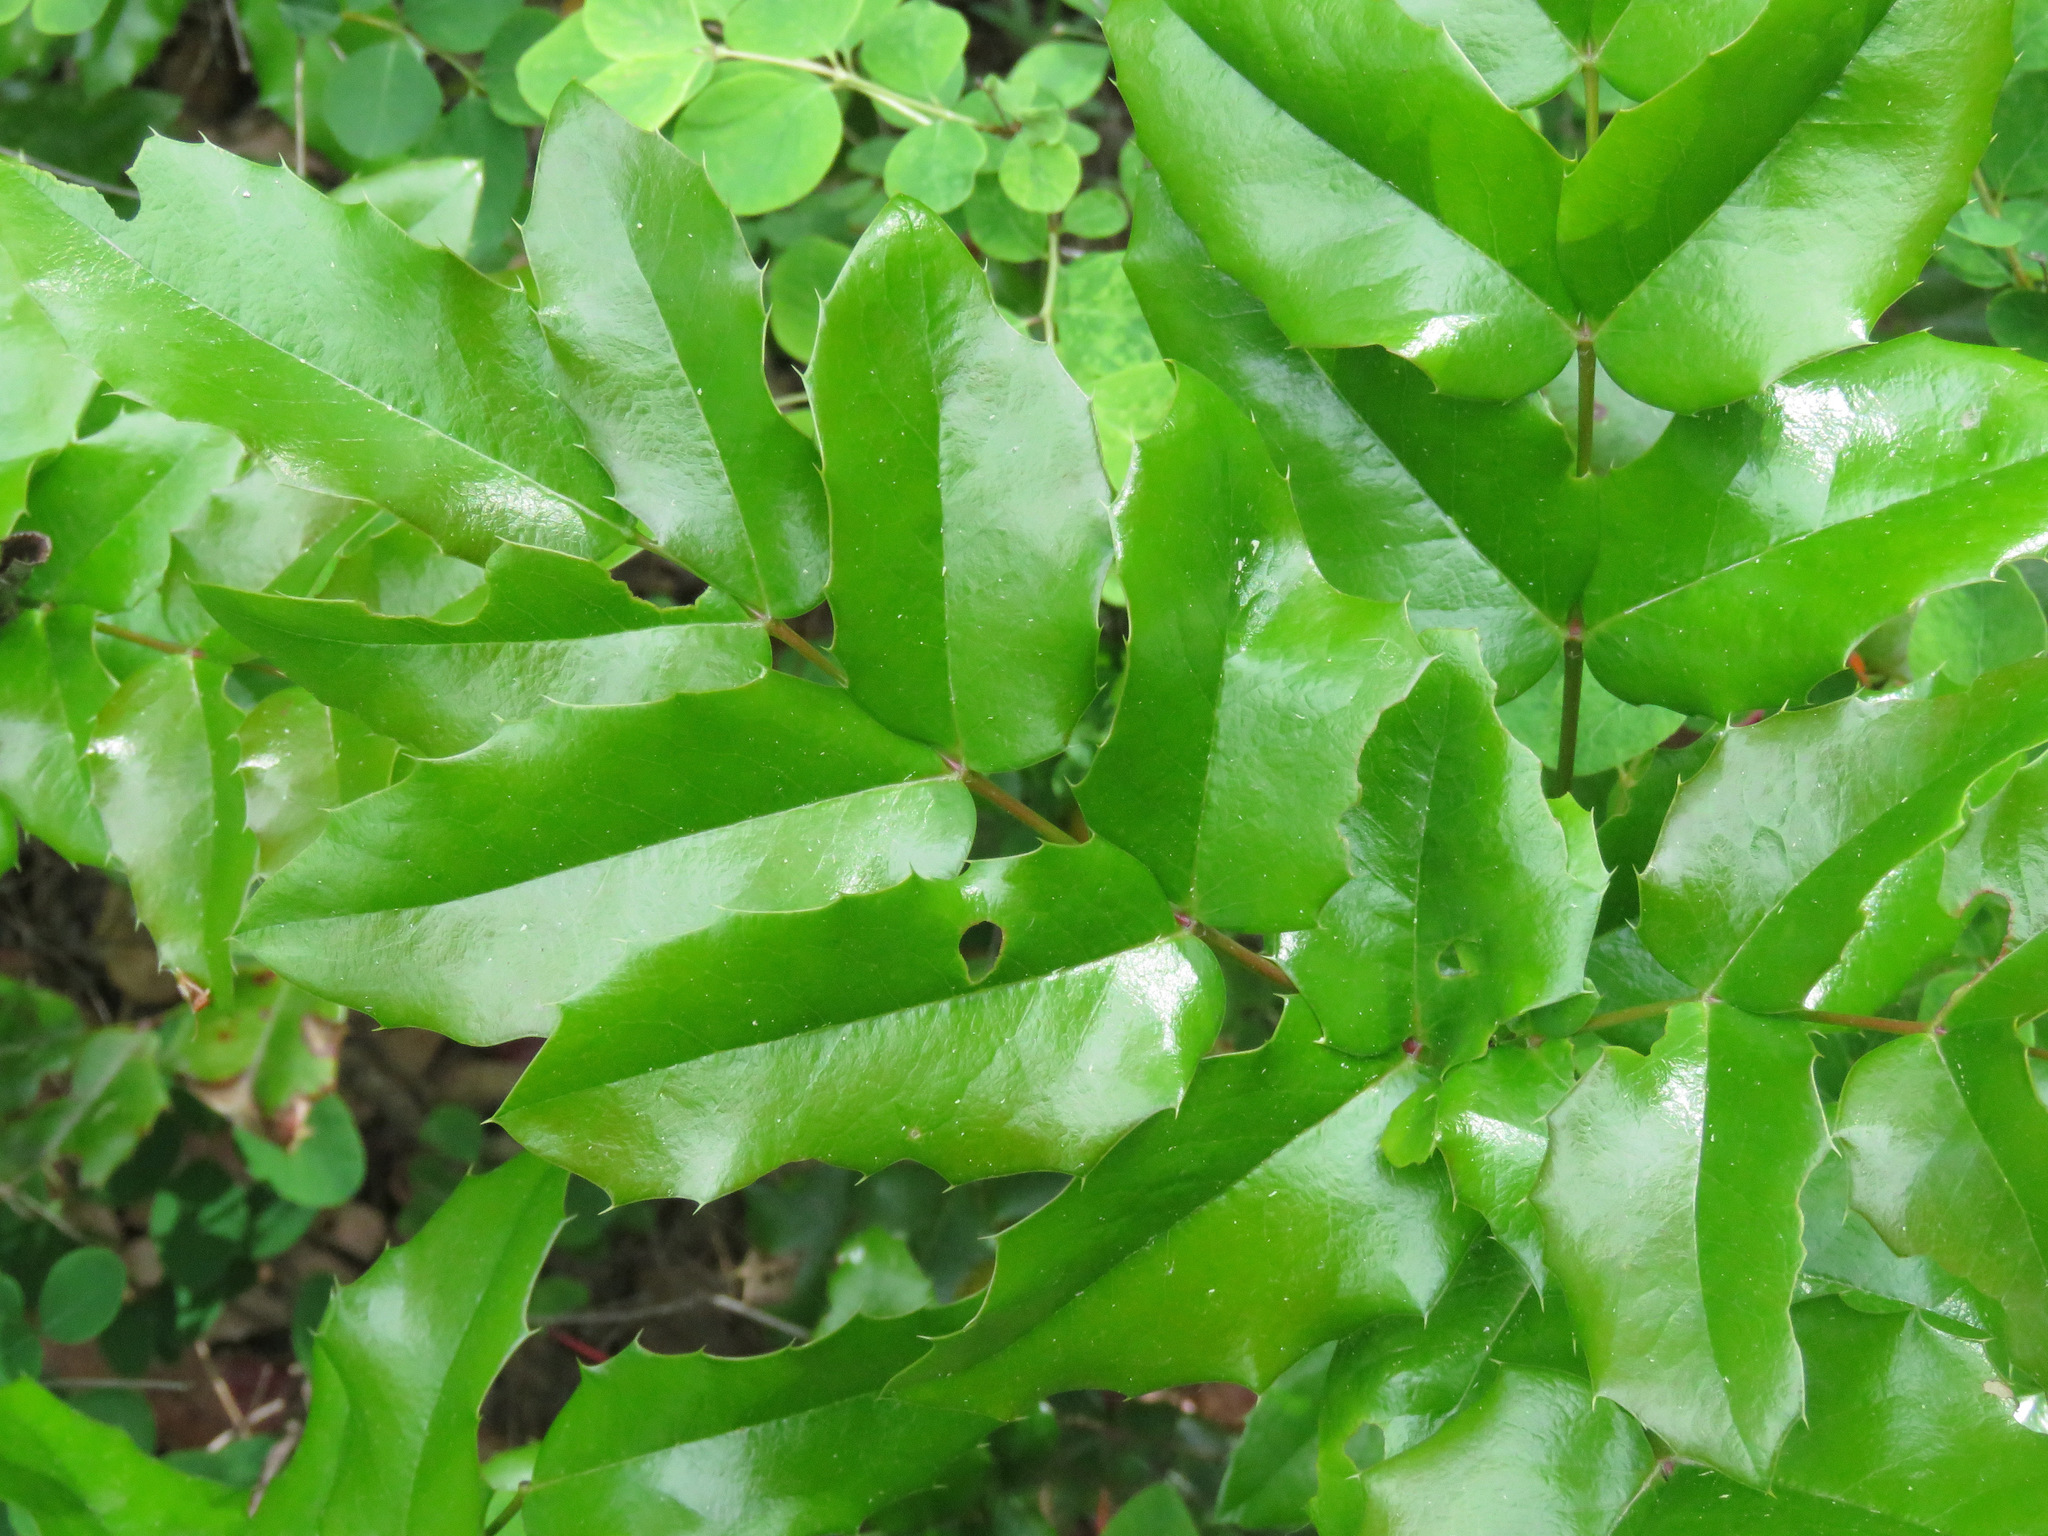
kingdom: Plantae
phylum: Tracheophyta
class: Magnoliopsida
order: Ranunculales
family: Berberidaceae
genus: Mahonia
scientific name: Mahonia aquifolium
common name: Oregon-grape
